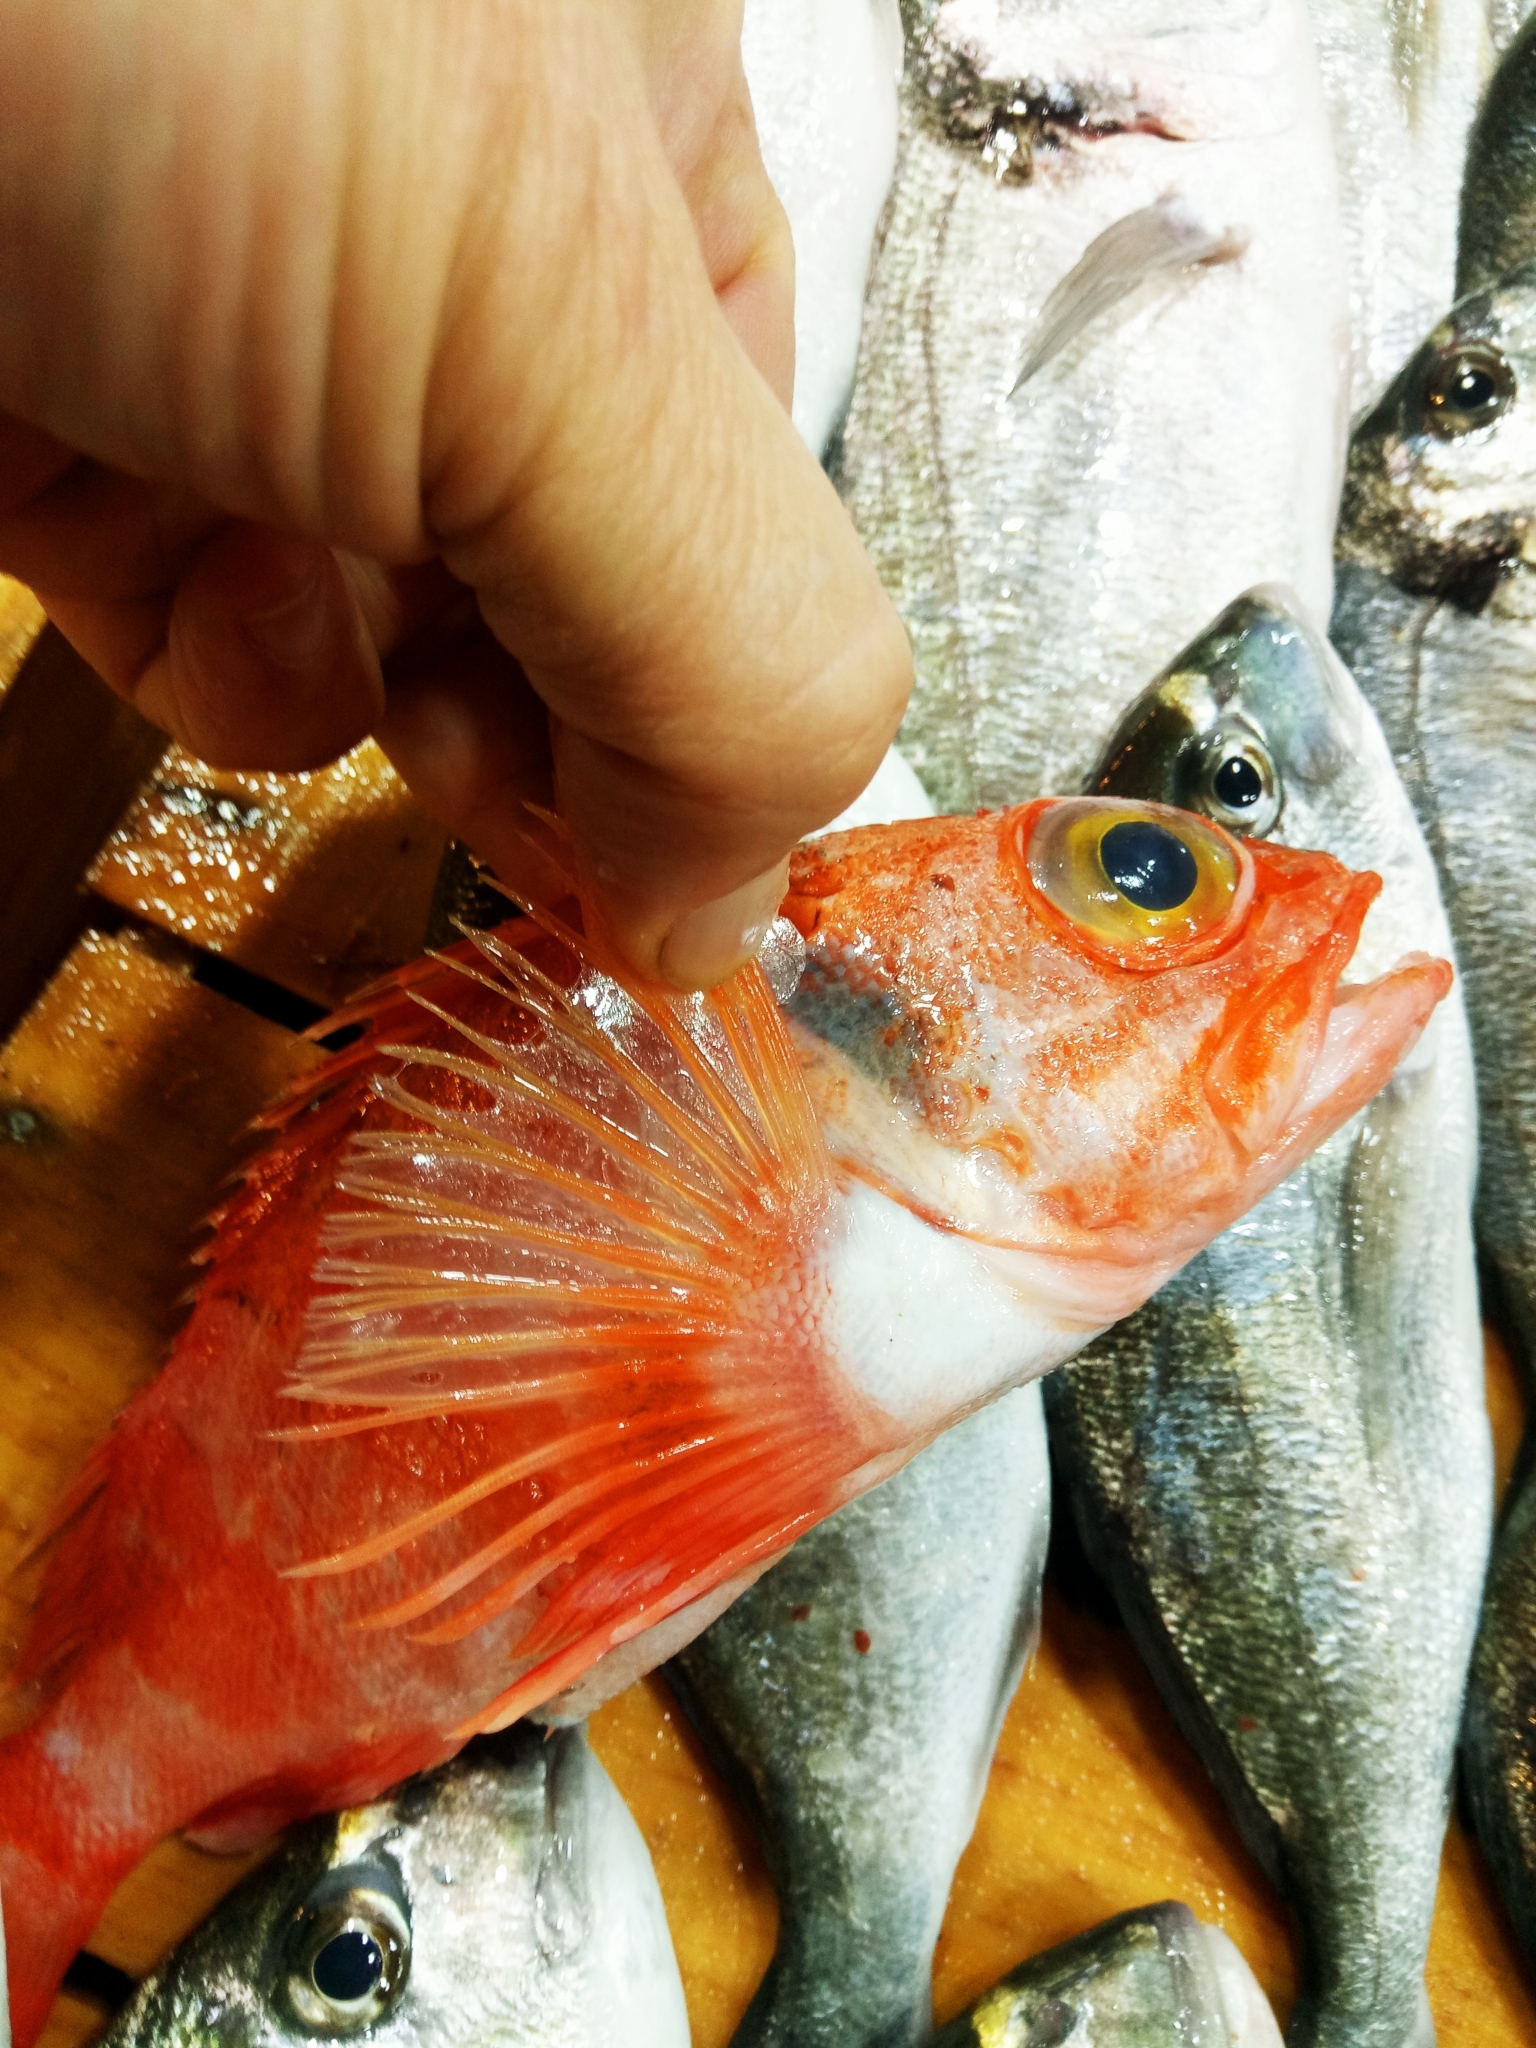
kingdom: Animalia
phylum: Chordata
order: Scorpaeniformes
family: Sebastidae
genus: Helicolenus
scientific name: Helicolenus dactylopterus
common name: Blackbelly rosefish
